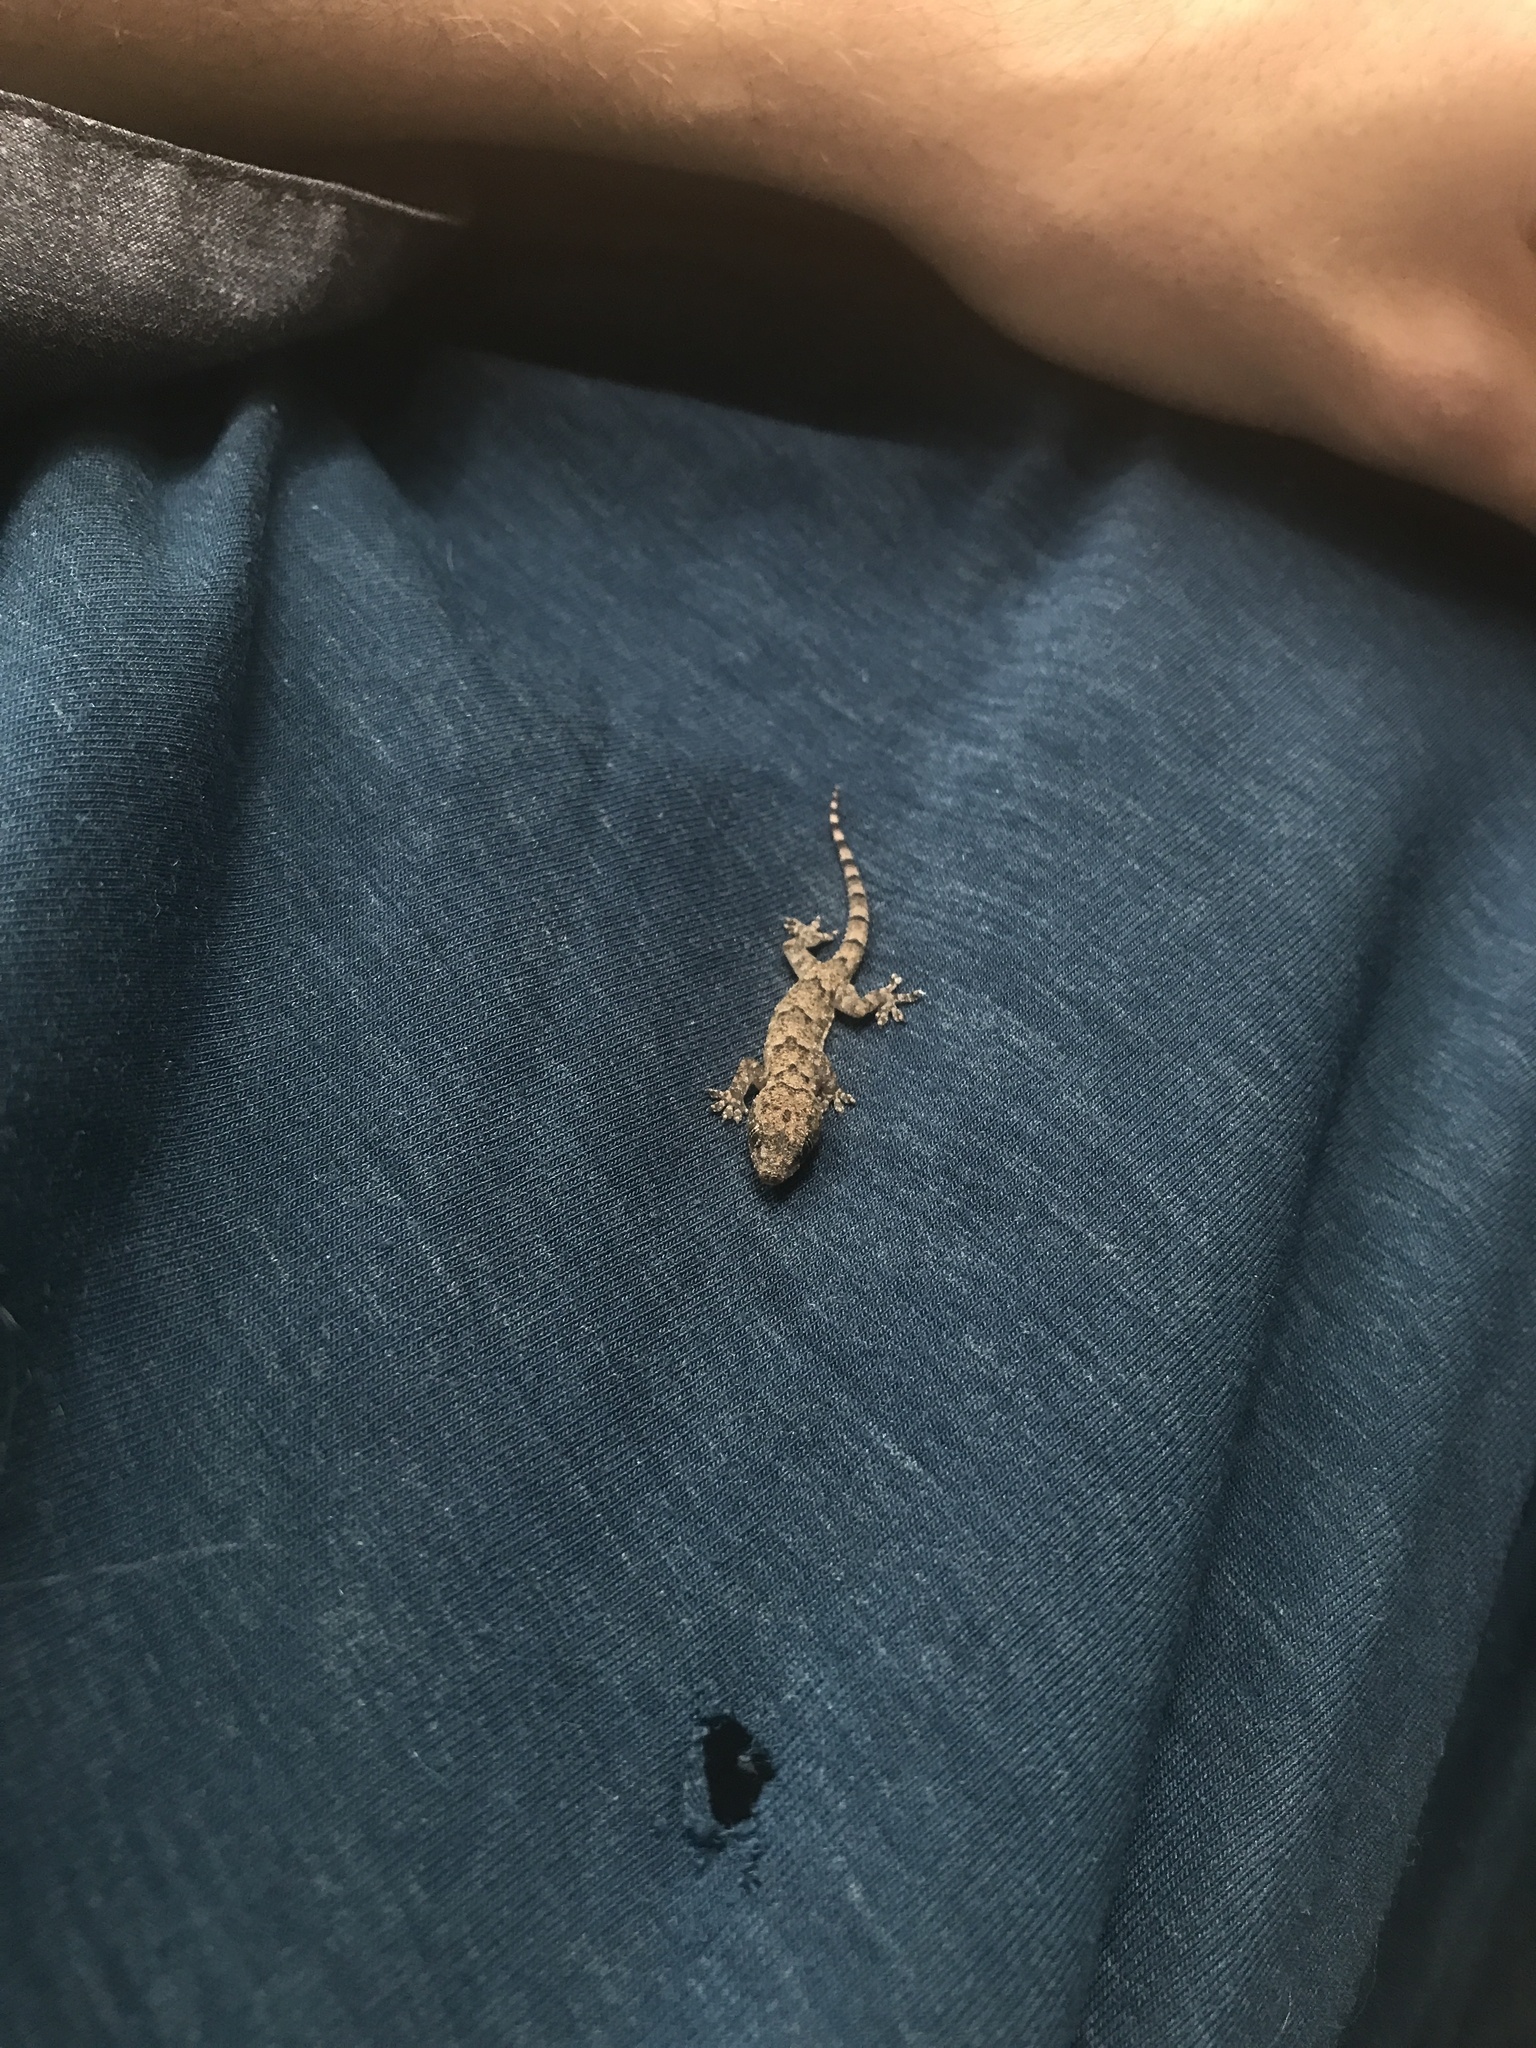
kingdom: Animalia
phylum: Chordata
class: Squamata
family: Gekkonidae
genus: Hemidactylus
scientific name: Hemidactylus mabouia
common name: House gecko
